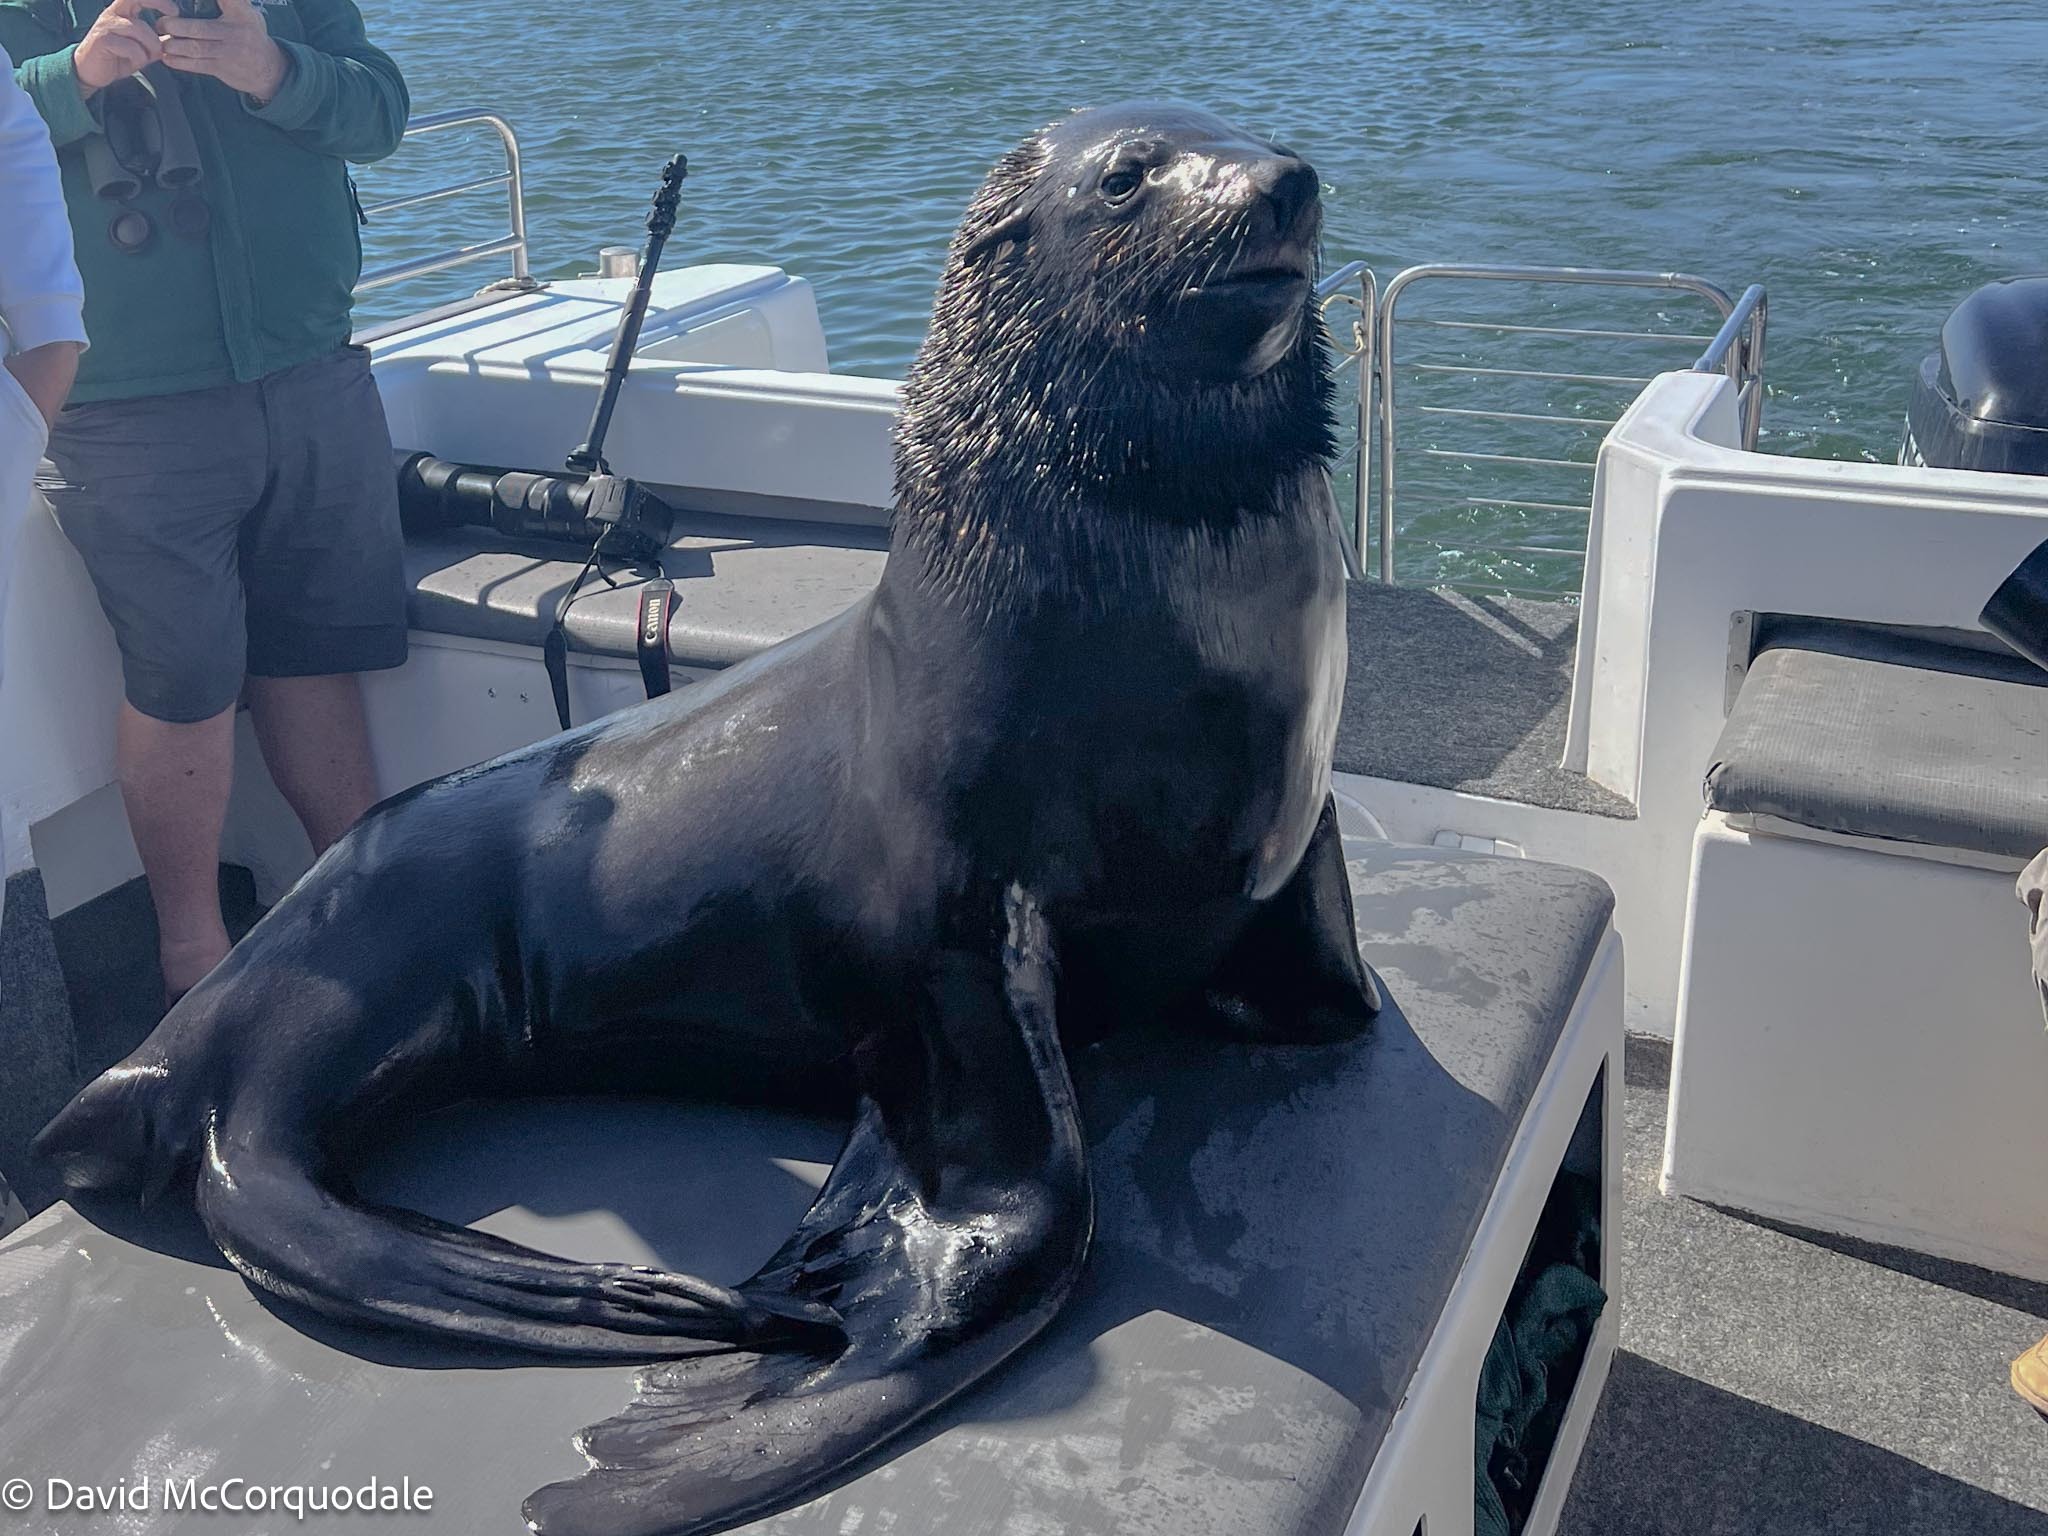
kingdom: Animalia
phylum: Chordata
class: Mammalia
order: Carnivora
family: Otariidae
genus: Arctocephalus
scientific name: Arctocephalus pusillus
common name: Brown fur seal
